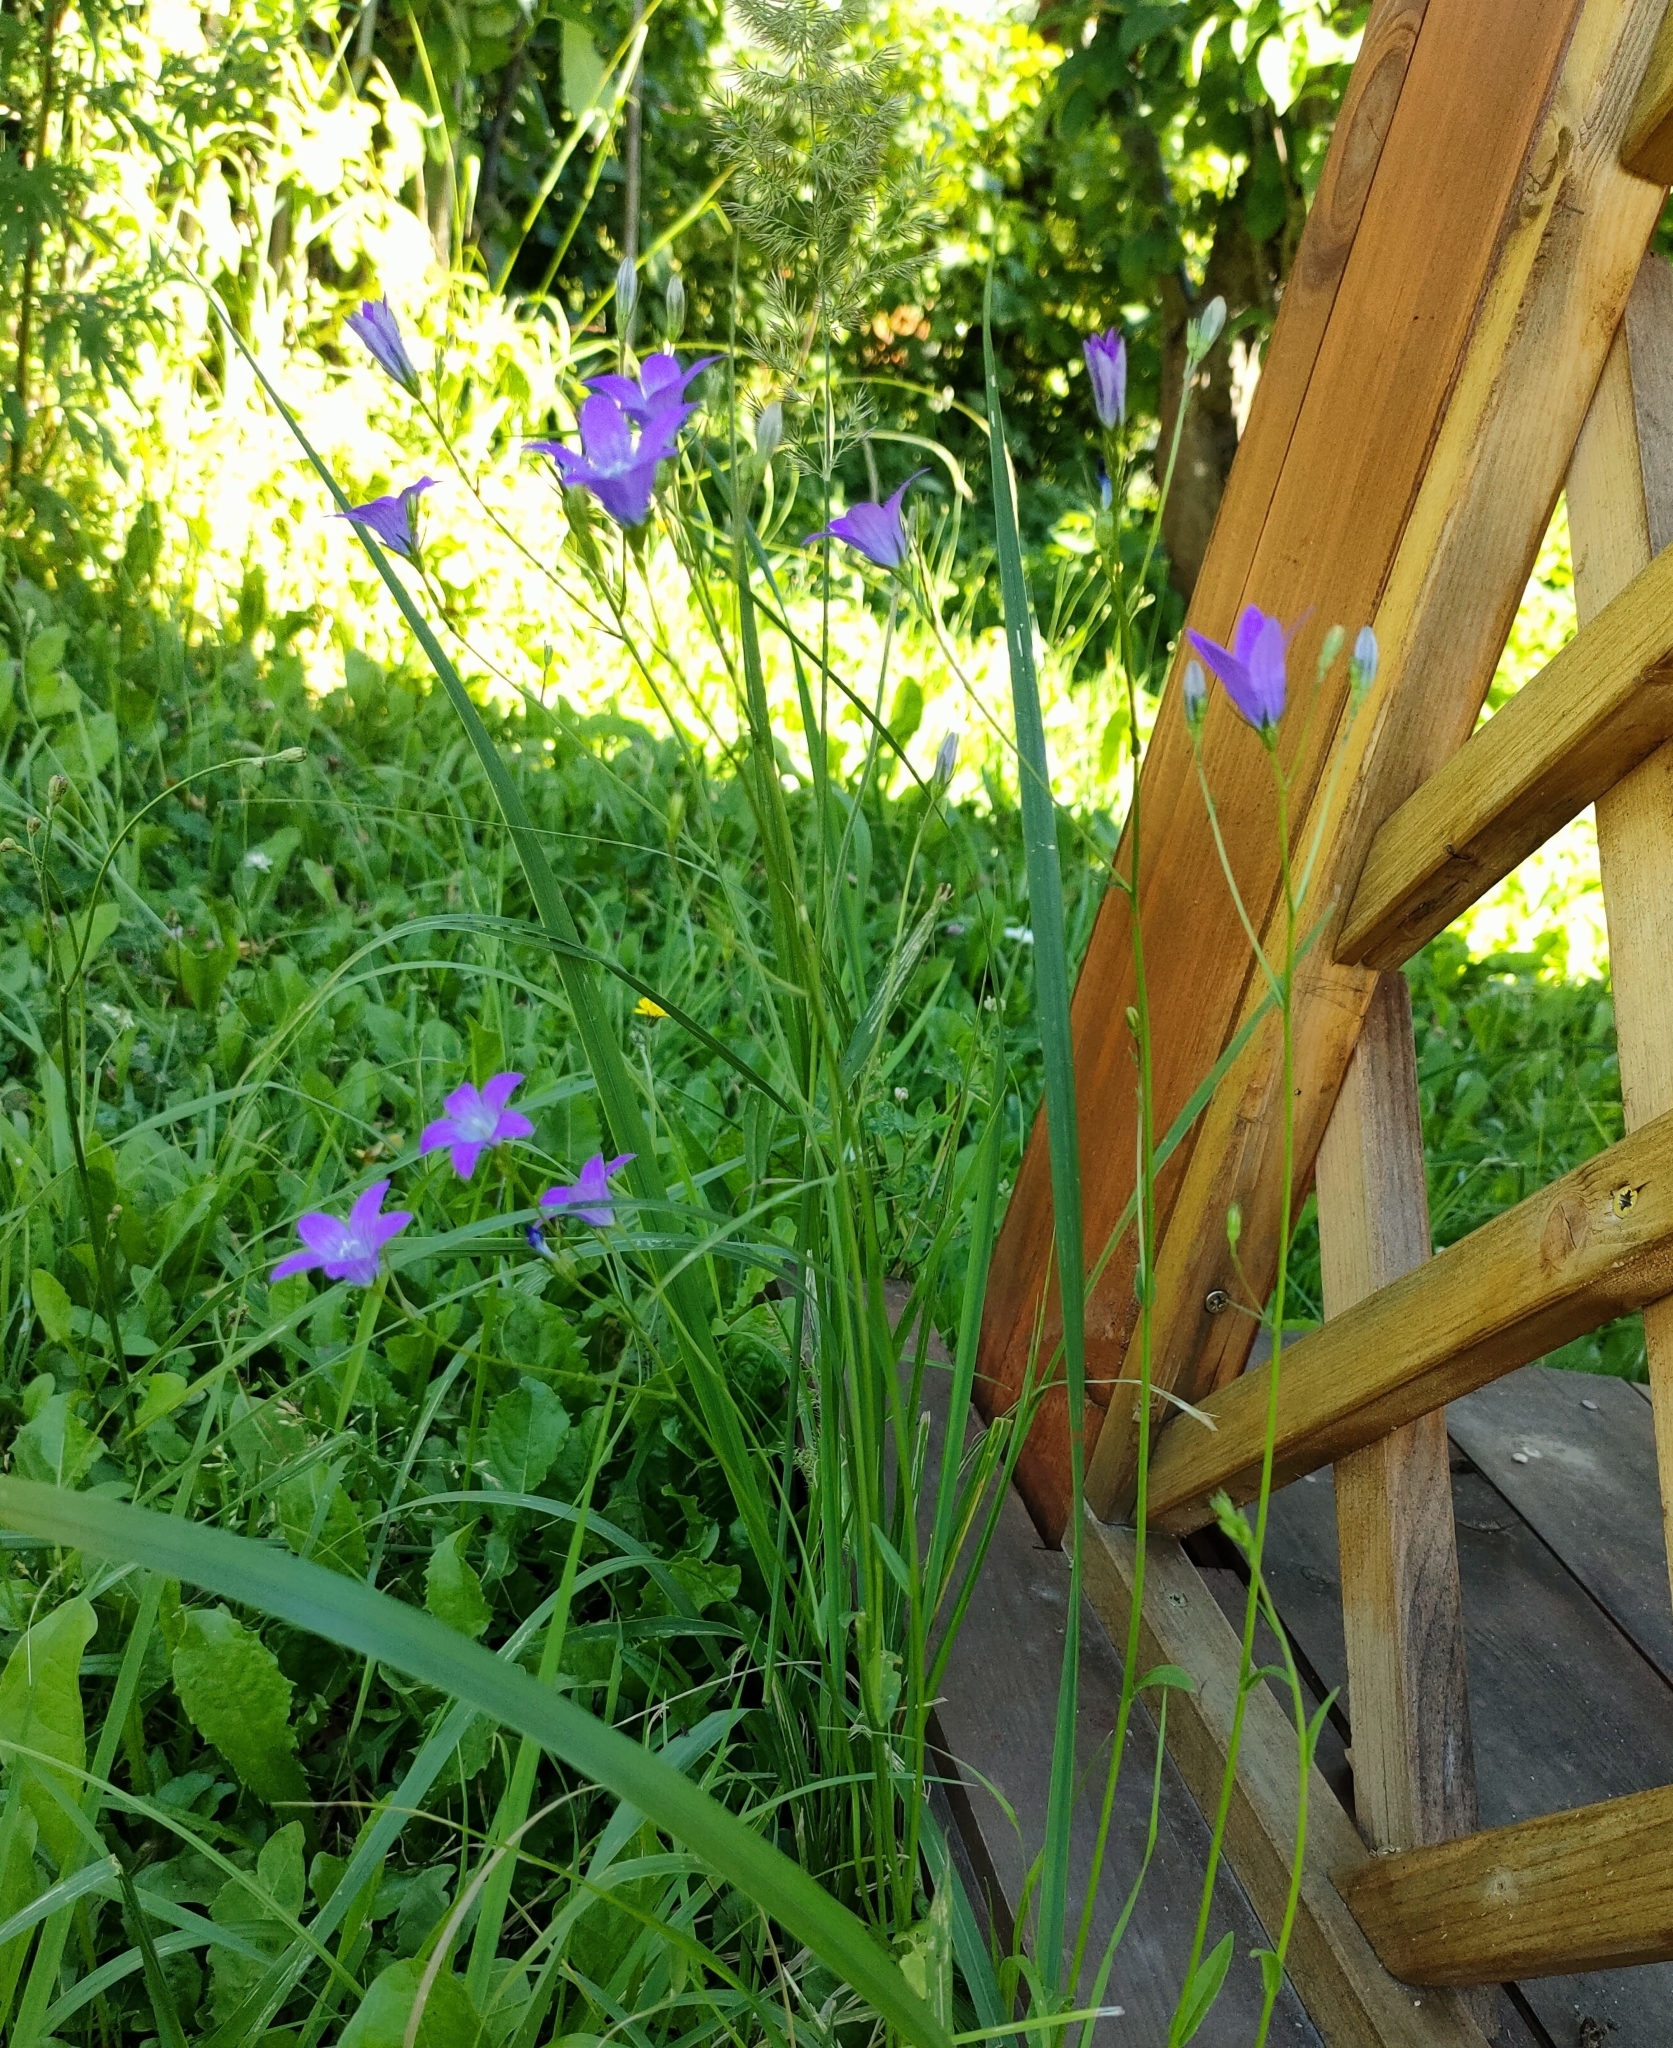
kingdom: Plantae
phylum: Tracheophyta
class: Magnoliopsida
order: Asterales
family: Campanulaceae
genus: Campanula
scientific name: Campanula patula
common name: Spreading bellflower
